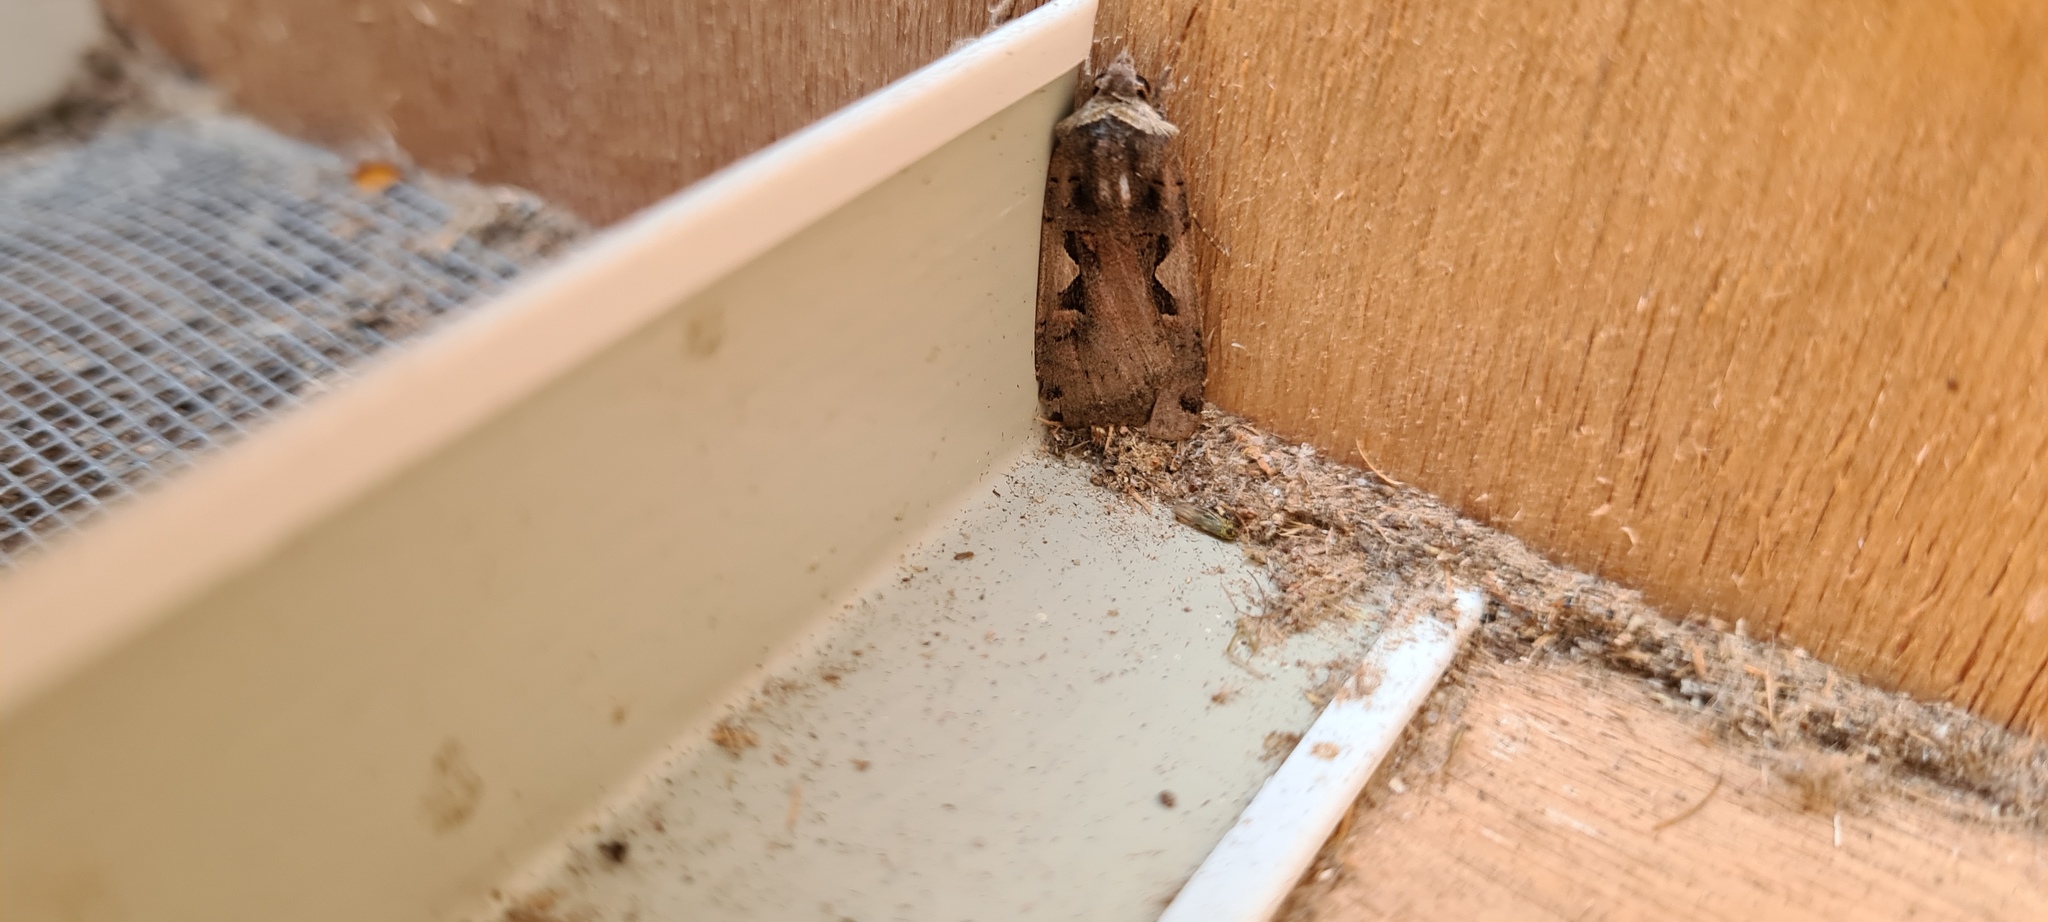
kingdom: Animalia
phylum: Arthropoda
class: Insecta
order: Lepidoptera
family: Noctuidae
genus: Xestia
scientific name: Xestia c-nigrum
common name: Setaceous hebrew character
